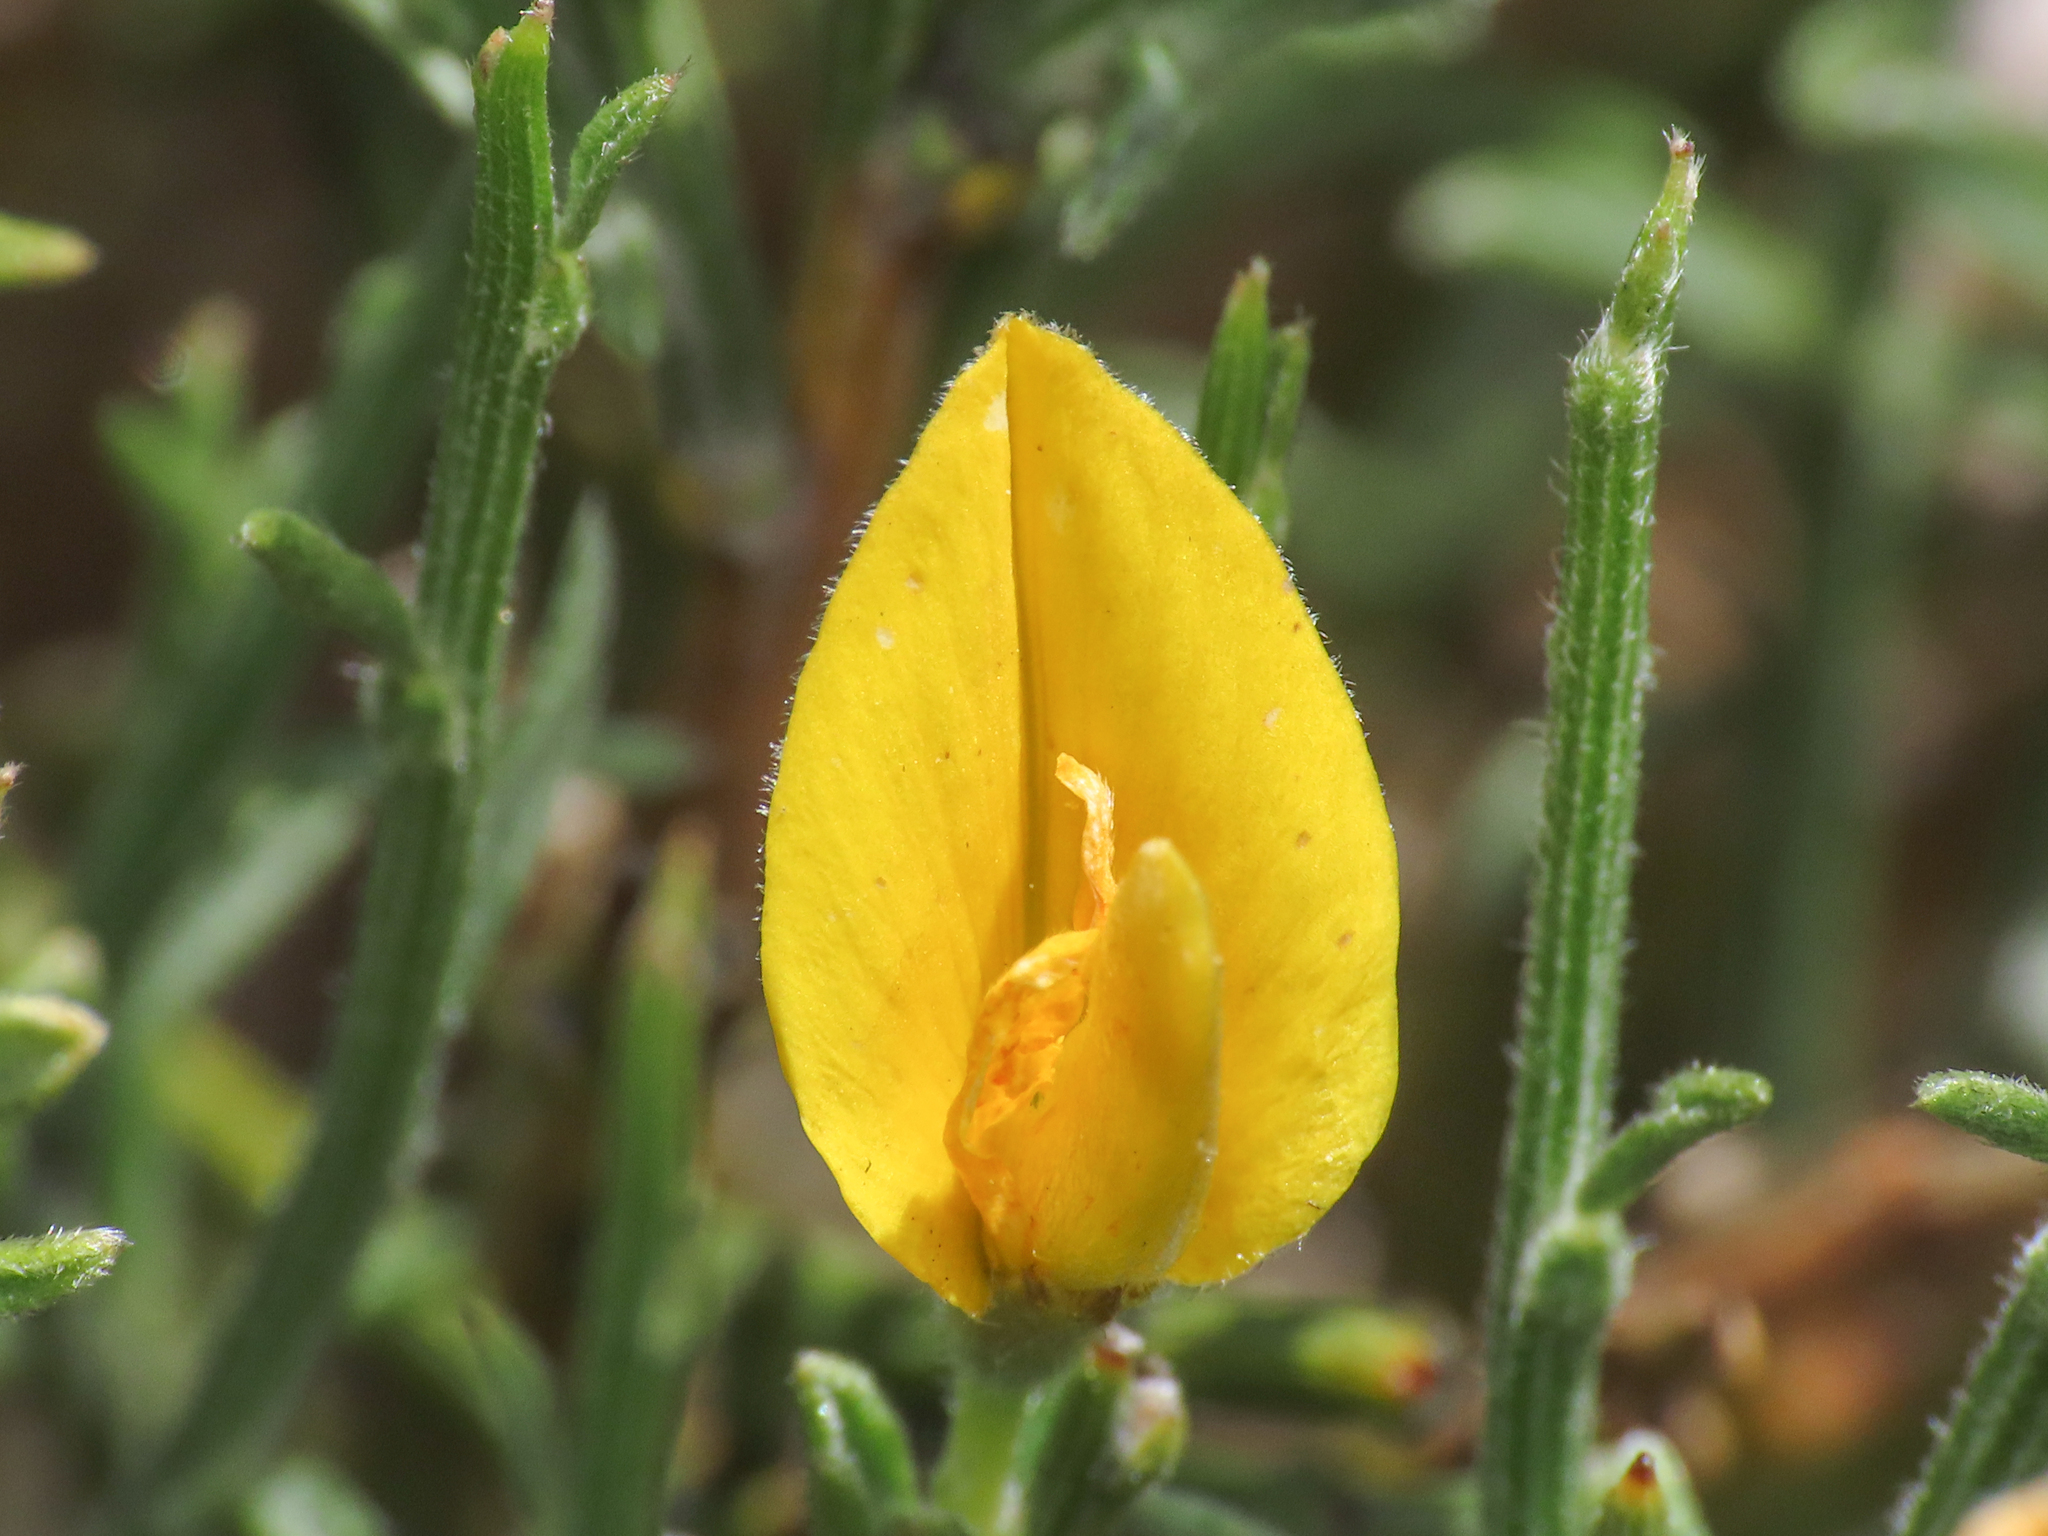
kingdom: Plantae
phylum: Tracheophyta
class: Magnoliopsida
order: Fabales
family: Fabaceae
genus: Genista
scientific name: Genista pulchella
